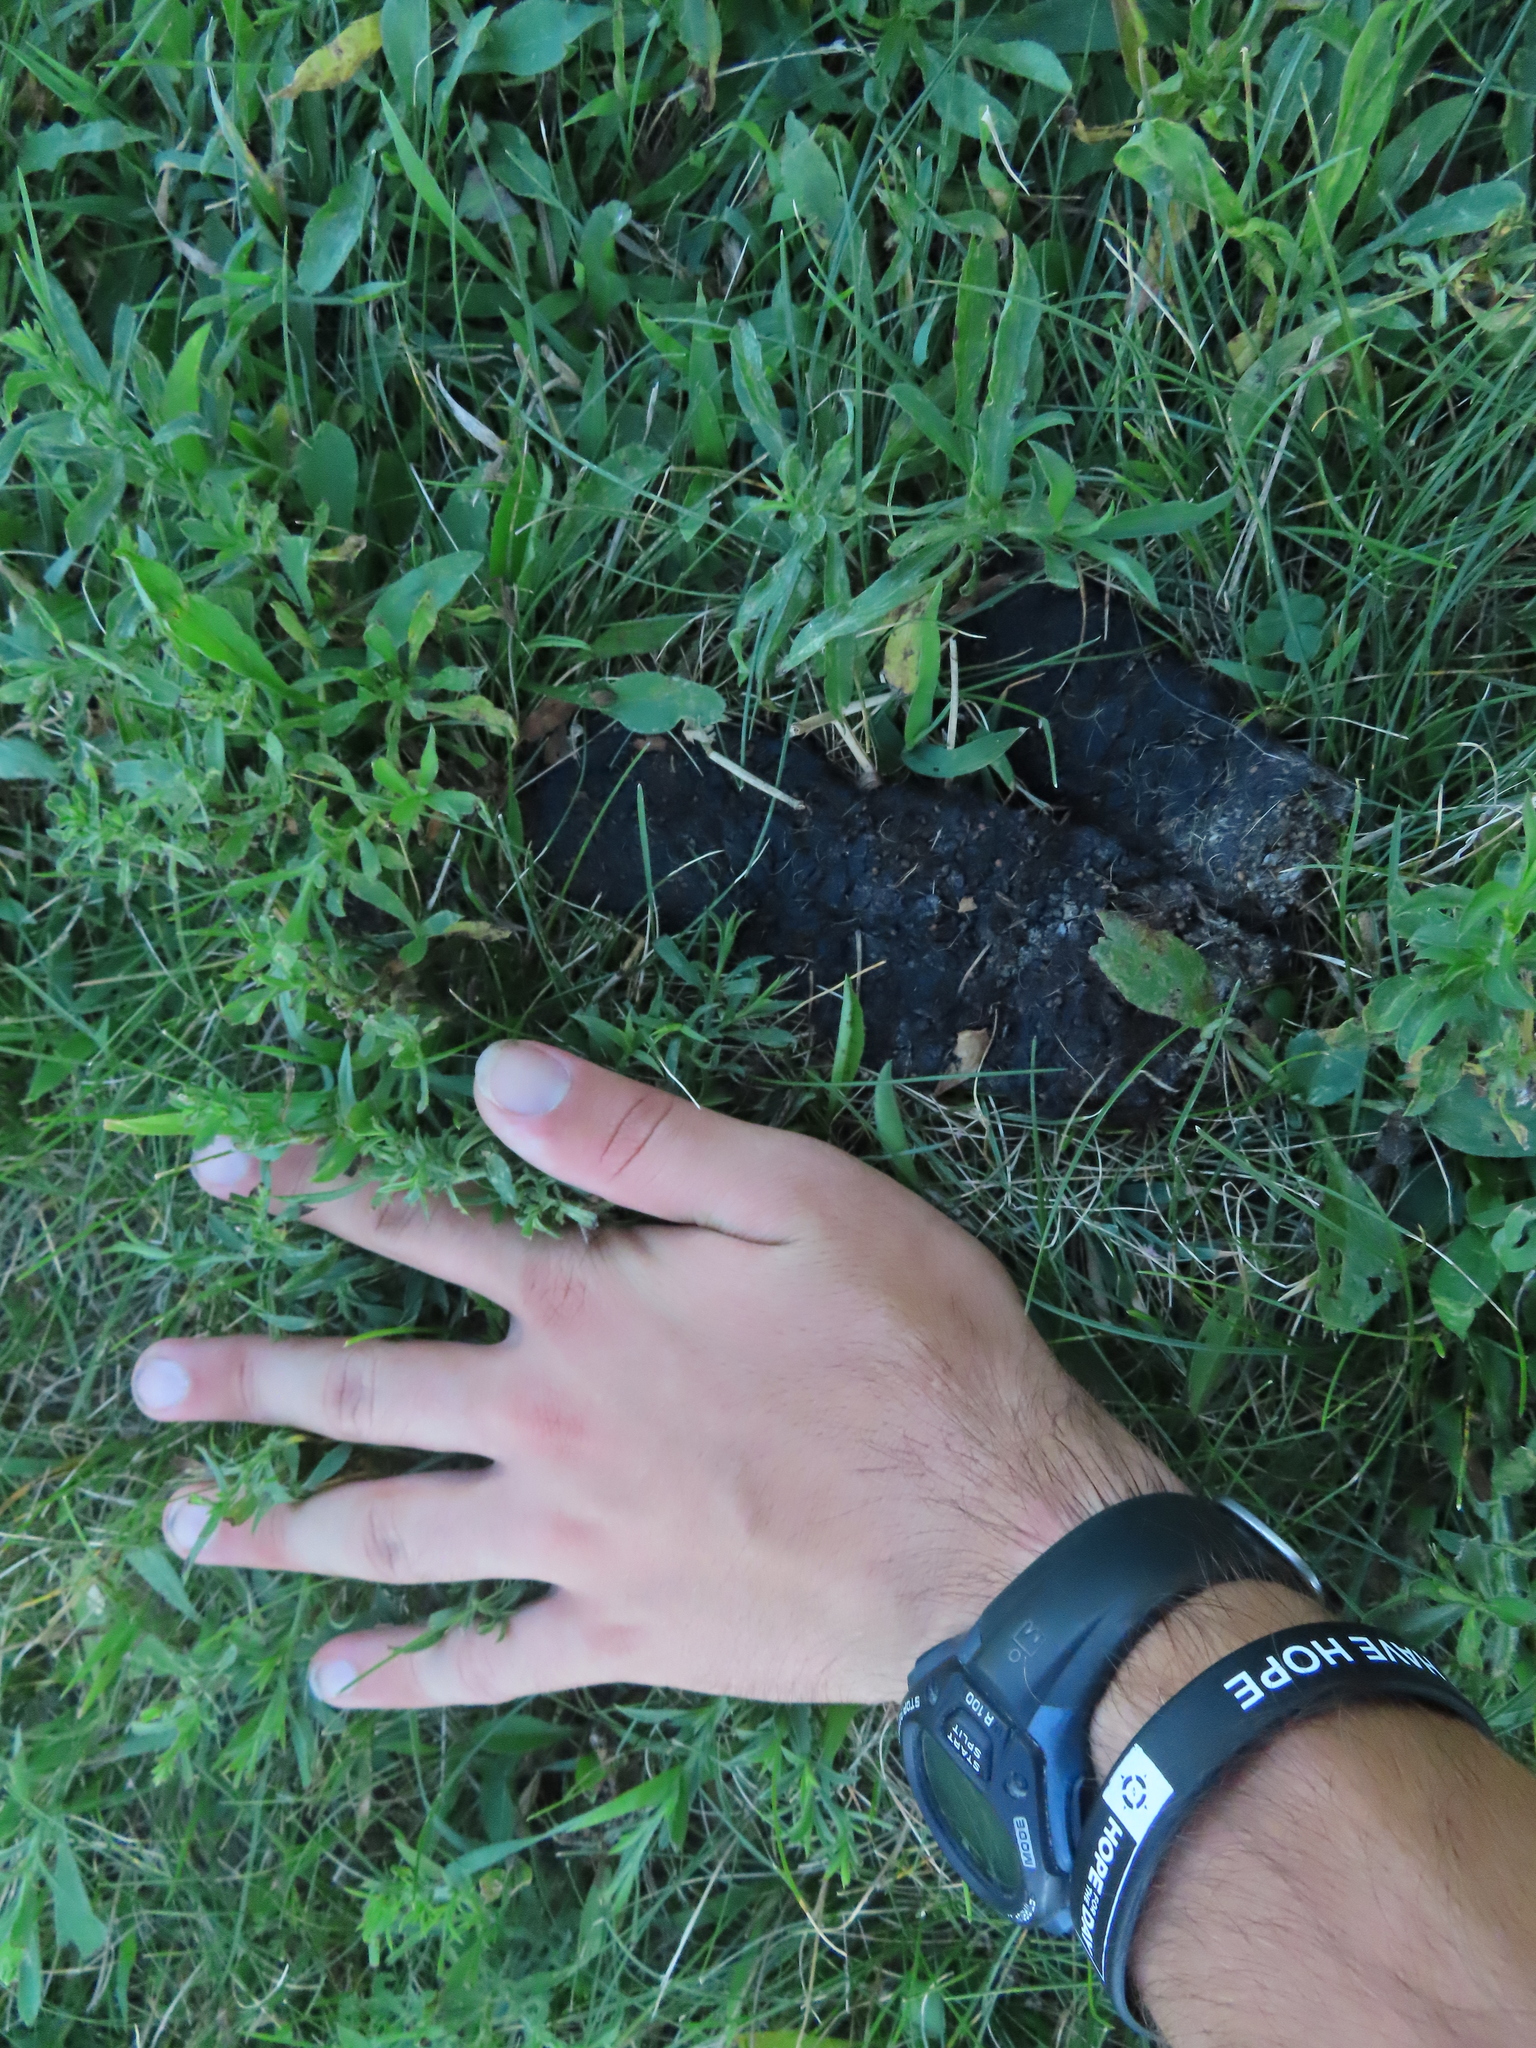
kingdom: Animalia
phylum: Chordata
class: Mammalia
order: Carnivora
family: Procyonidae
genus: Procyon
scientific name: Procyon lotor
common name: Raccoon
